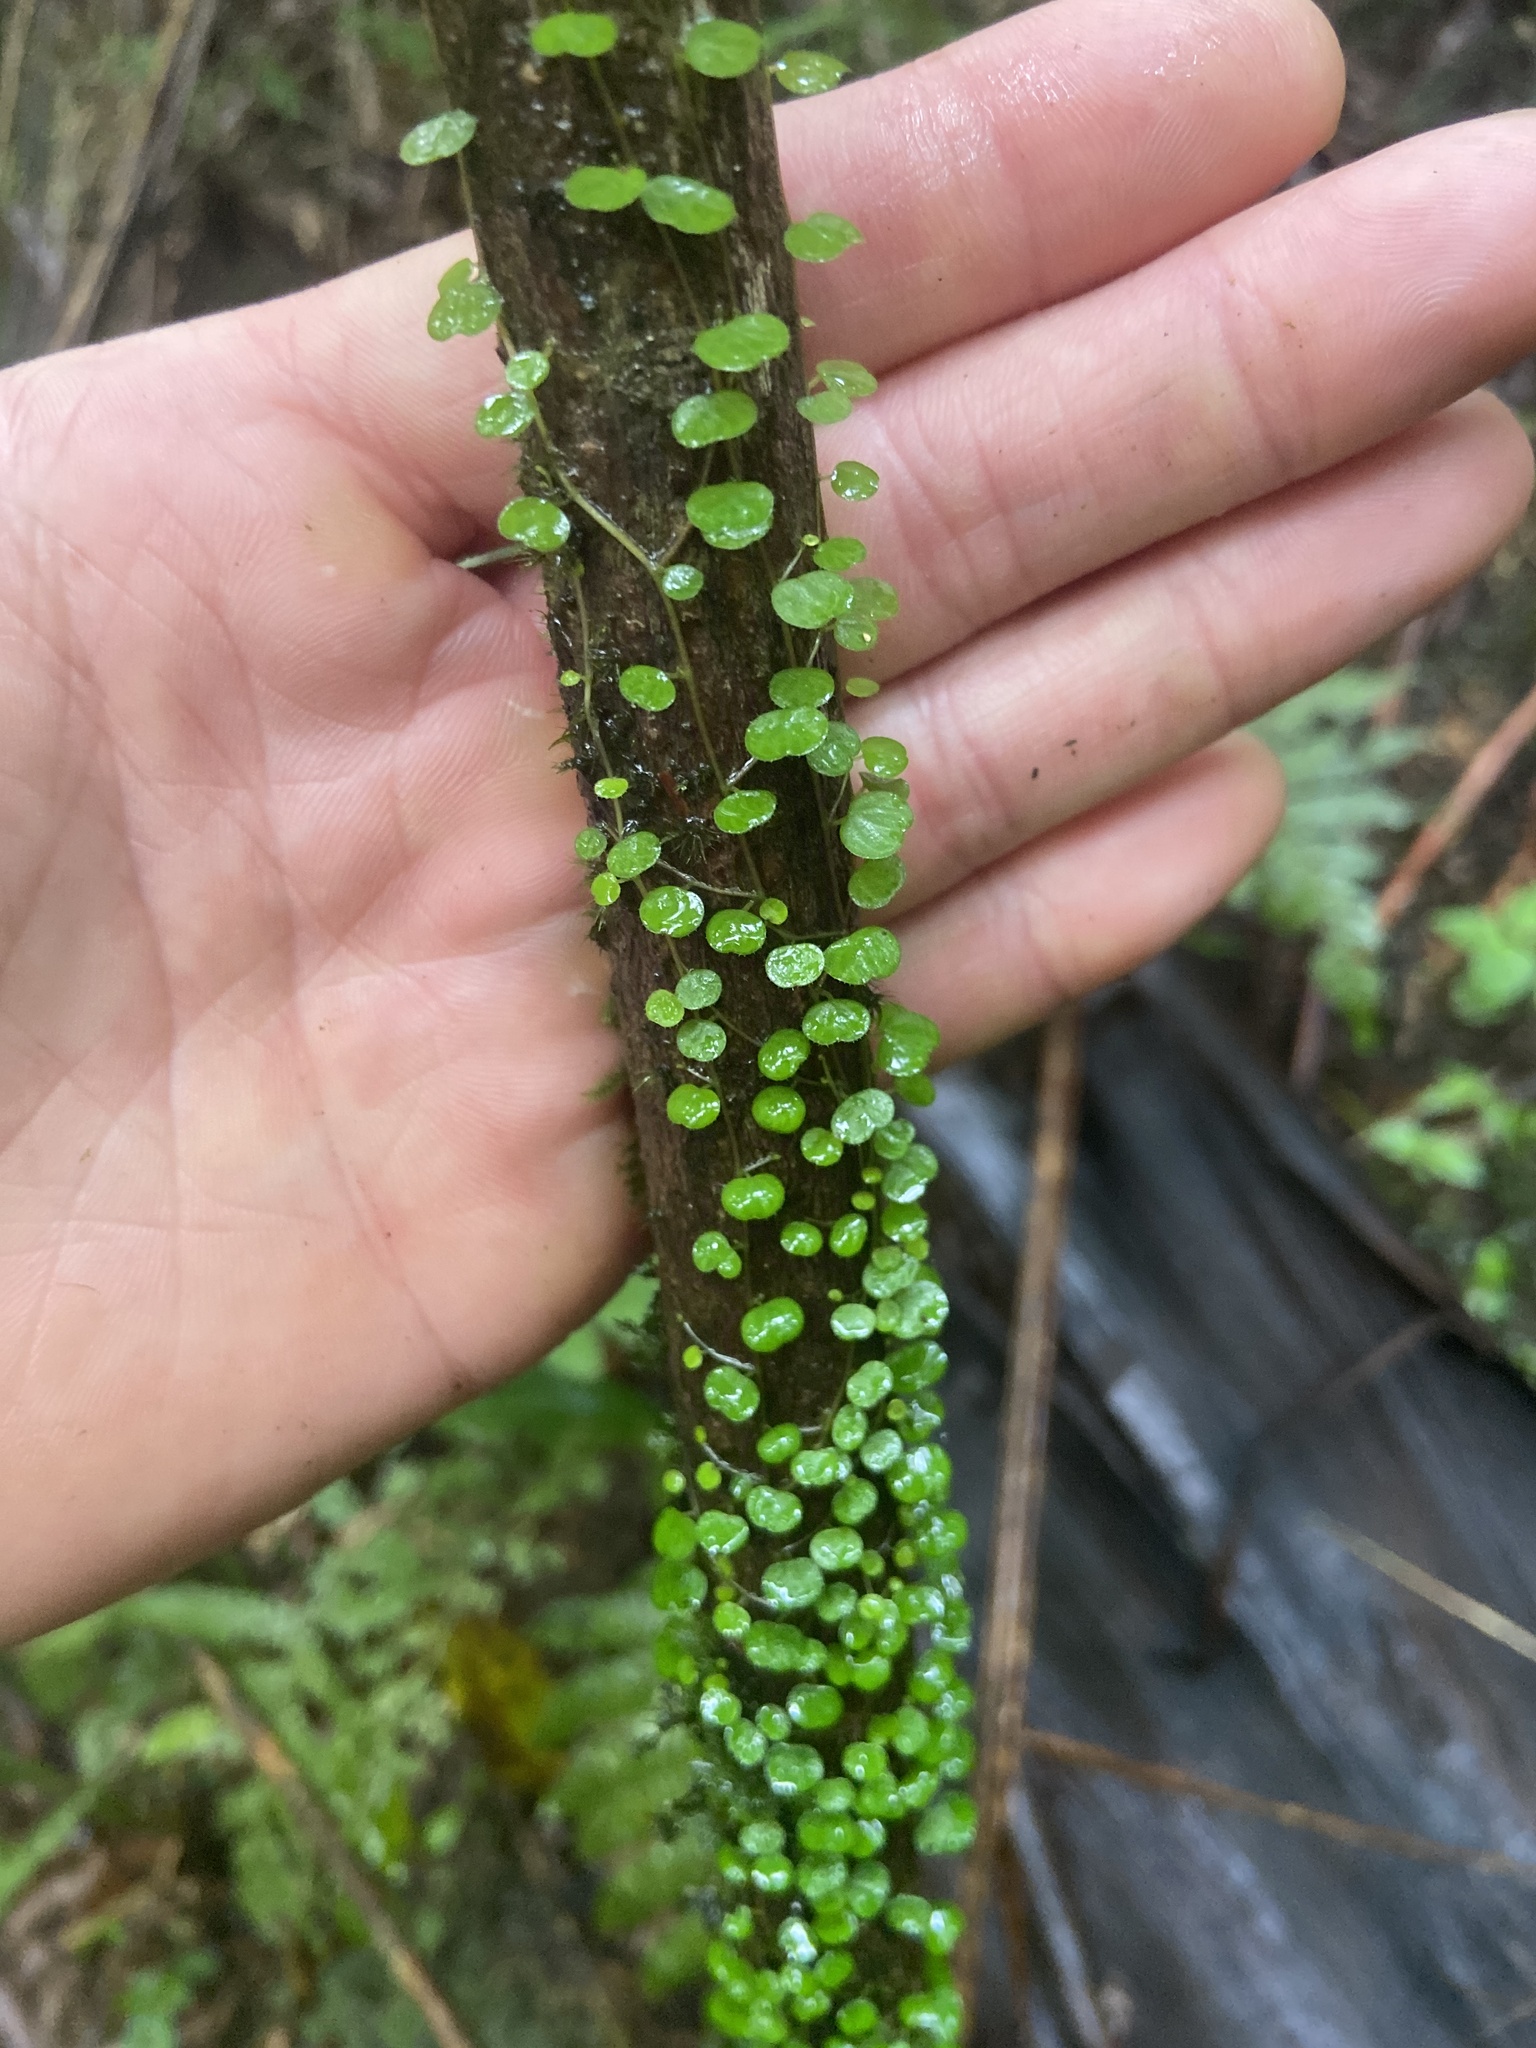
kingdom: Plantae
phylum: Tracheophyta
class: Magnoliopsida
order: Piperales
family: Piperaceae
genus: Peperomia
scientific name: Peperomia emarginella
